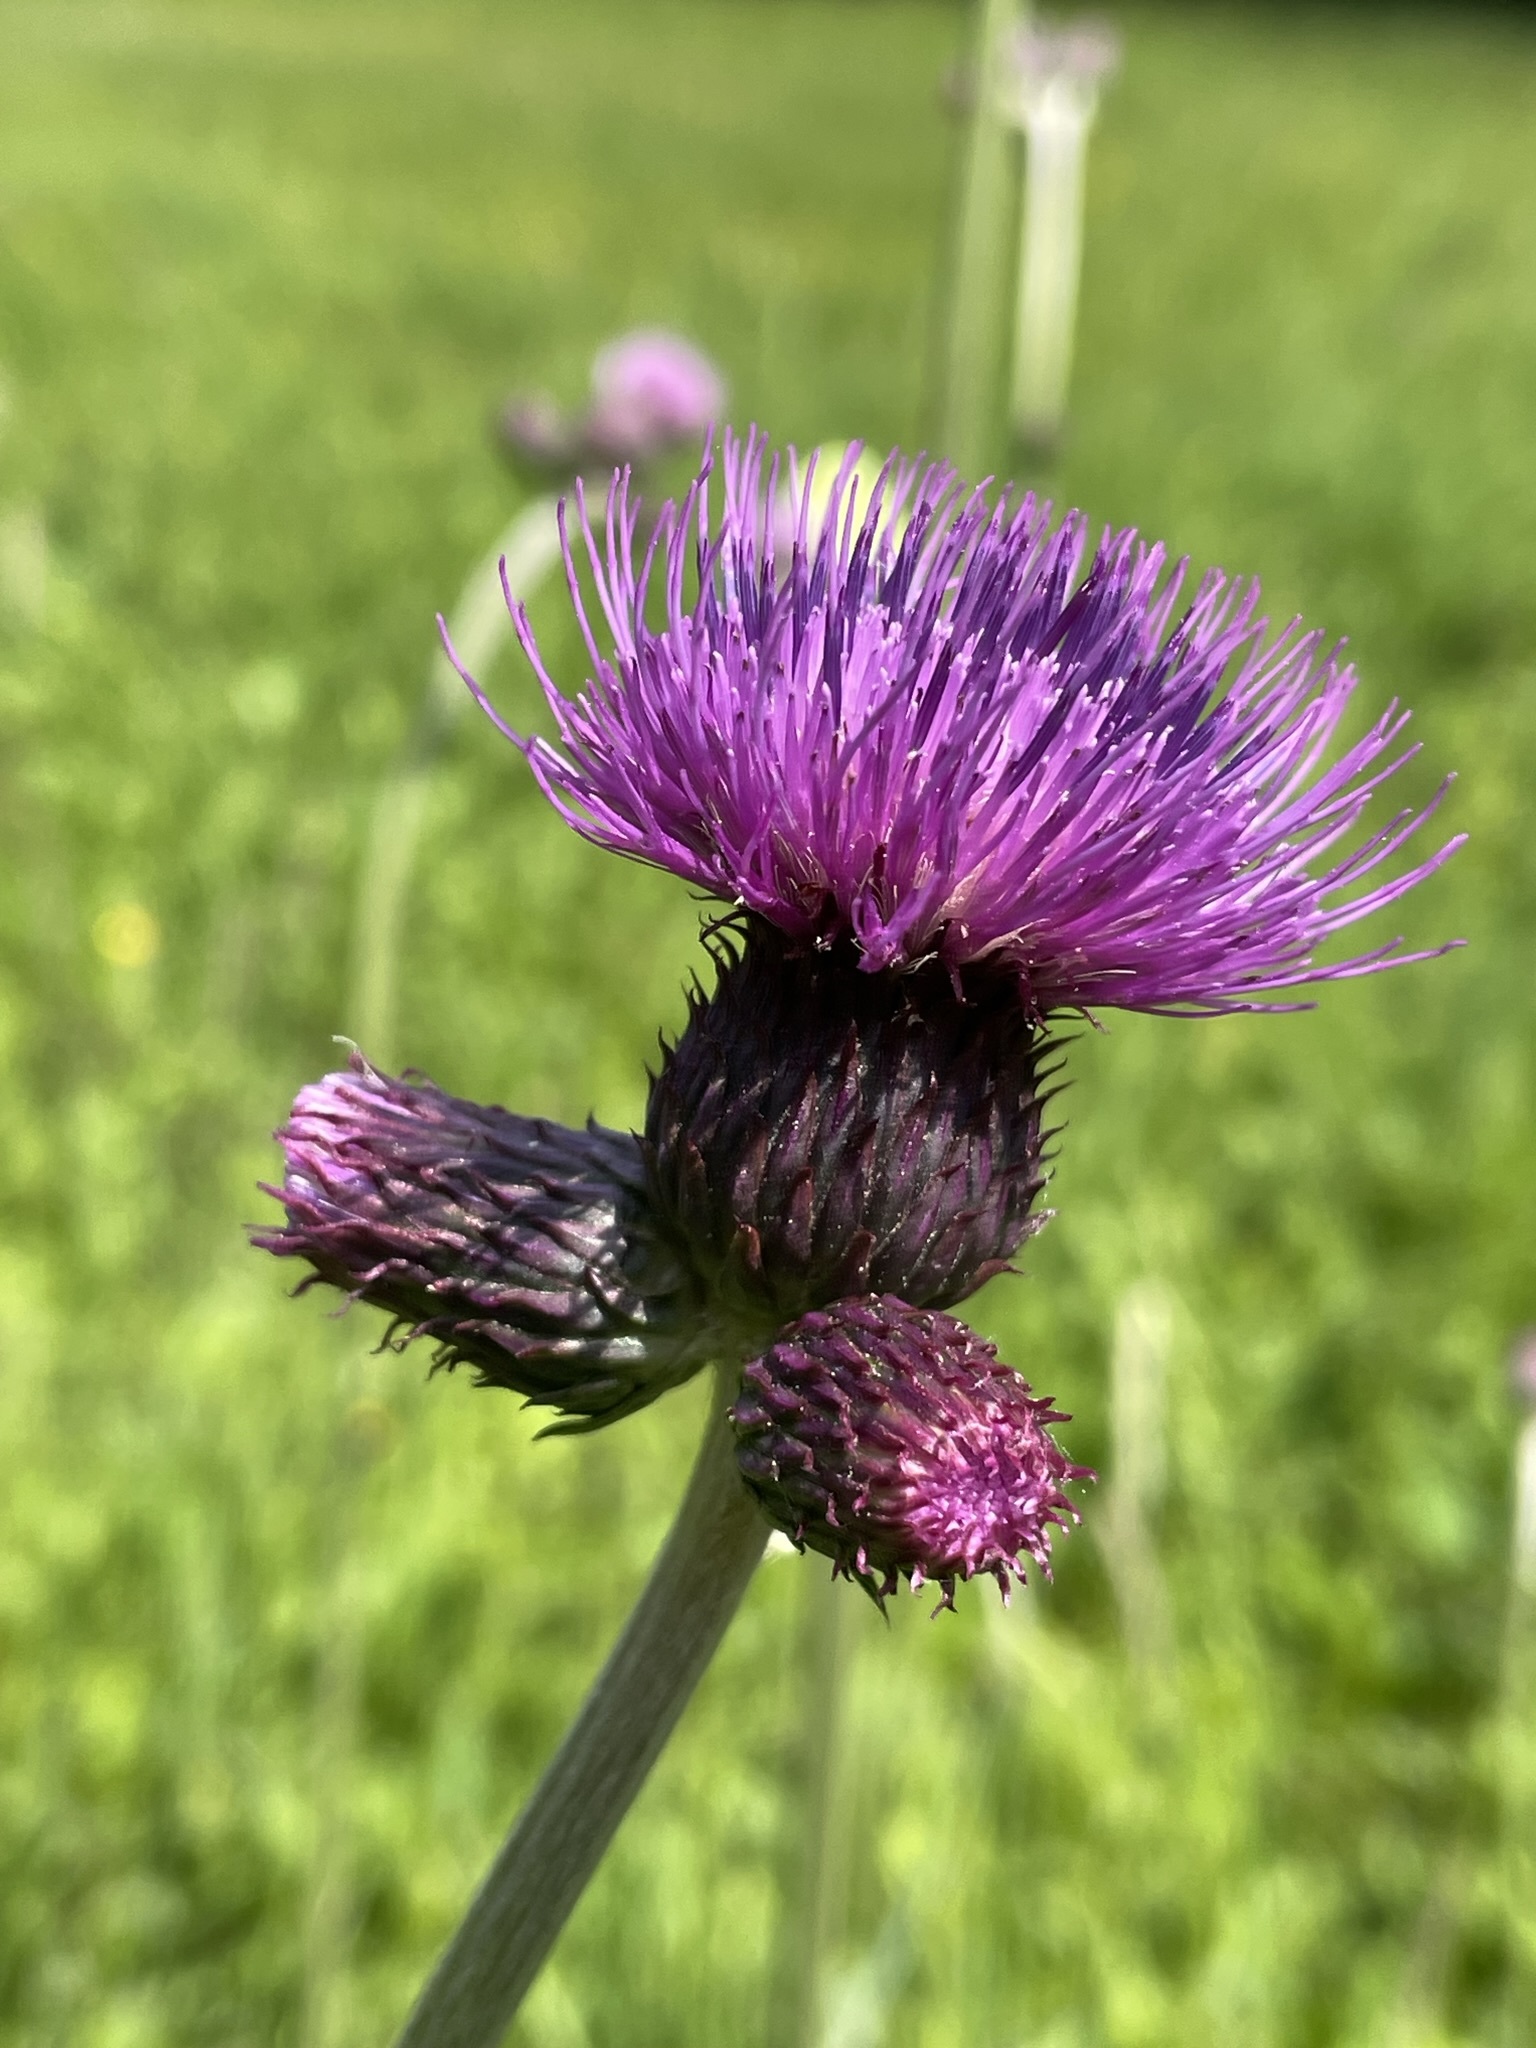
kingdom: Plantae
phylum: Tracheophyta
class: Magnoliopsida
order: Asterales
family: Asteraceae
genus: Cirsium
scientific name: Cirsium rivulare
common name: Brook thistle
